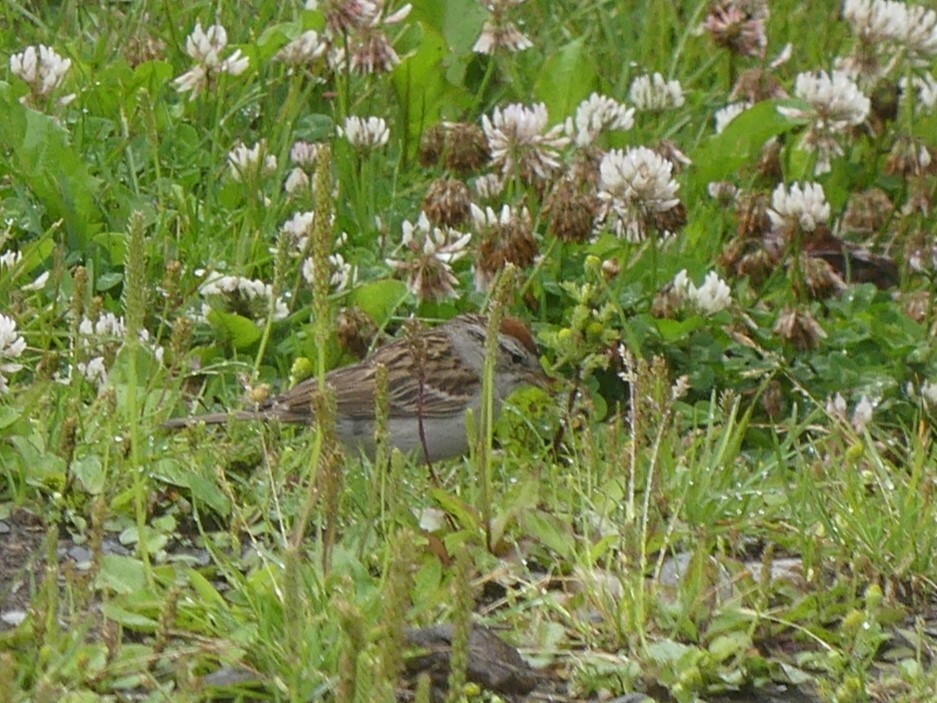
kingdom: Animalia
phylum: Chordata
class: Aves
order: Passeriformes
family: Passerellidae
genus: Spizella
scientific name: Spizella passerina
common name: Chipping sparrow
